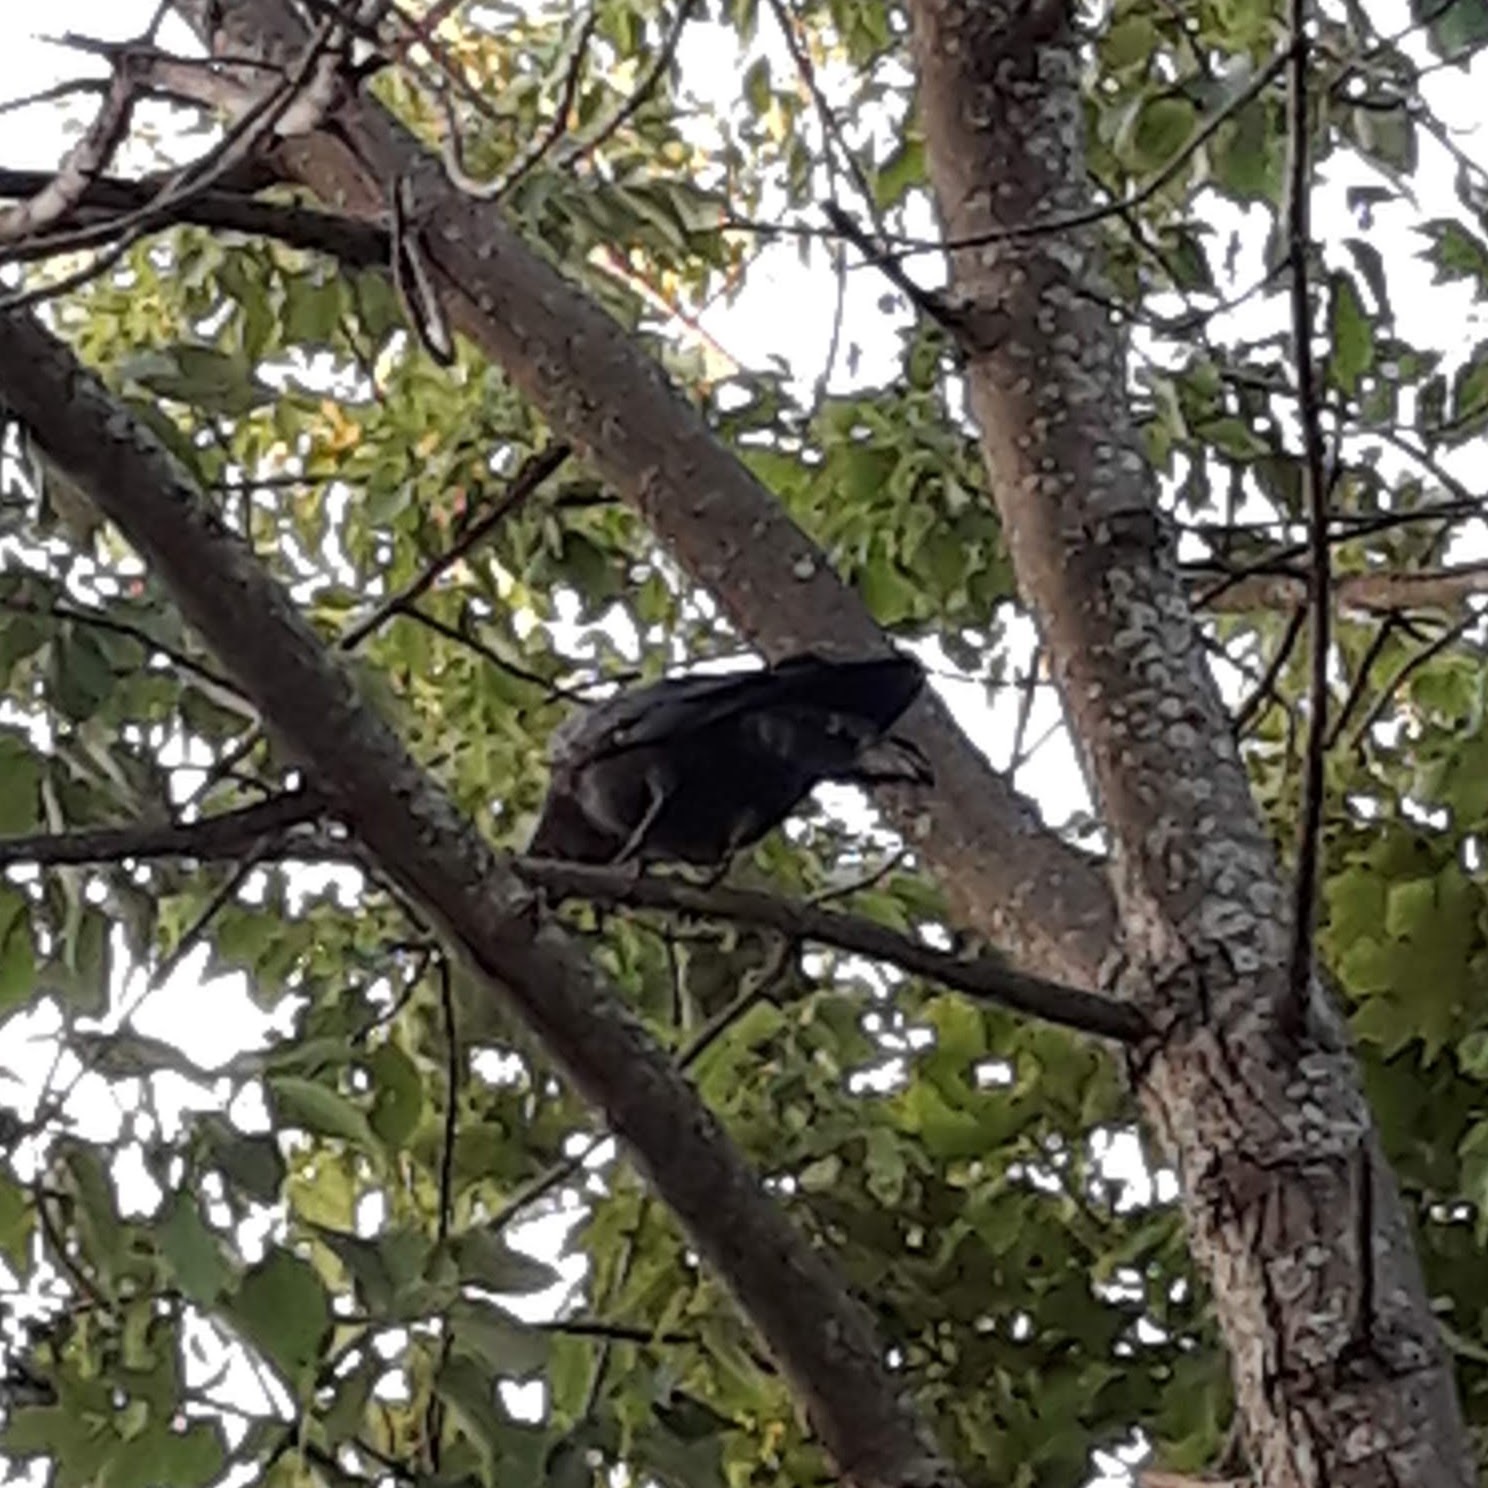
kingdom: Animalia
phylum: Chordata
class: Aves
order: Passeriformes
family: Corvidae
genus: Corvus
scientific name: Corvus brachyrhynchos
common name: American crow
